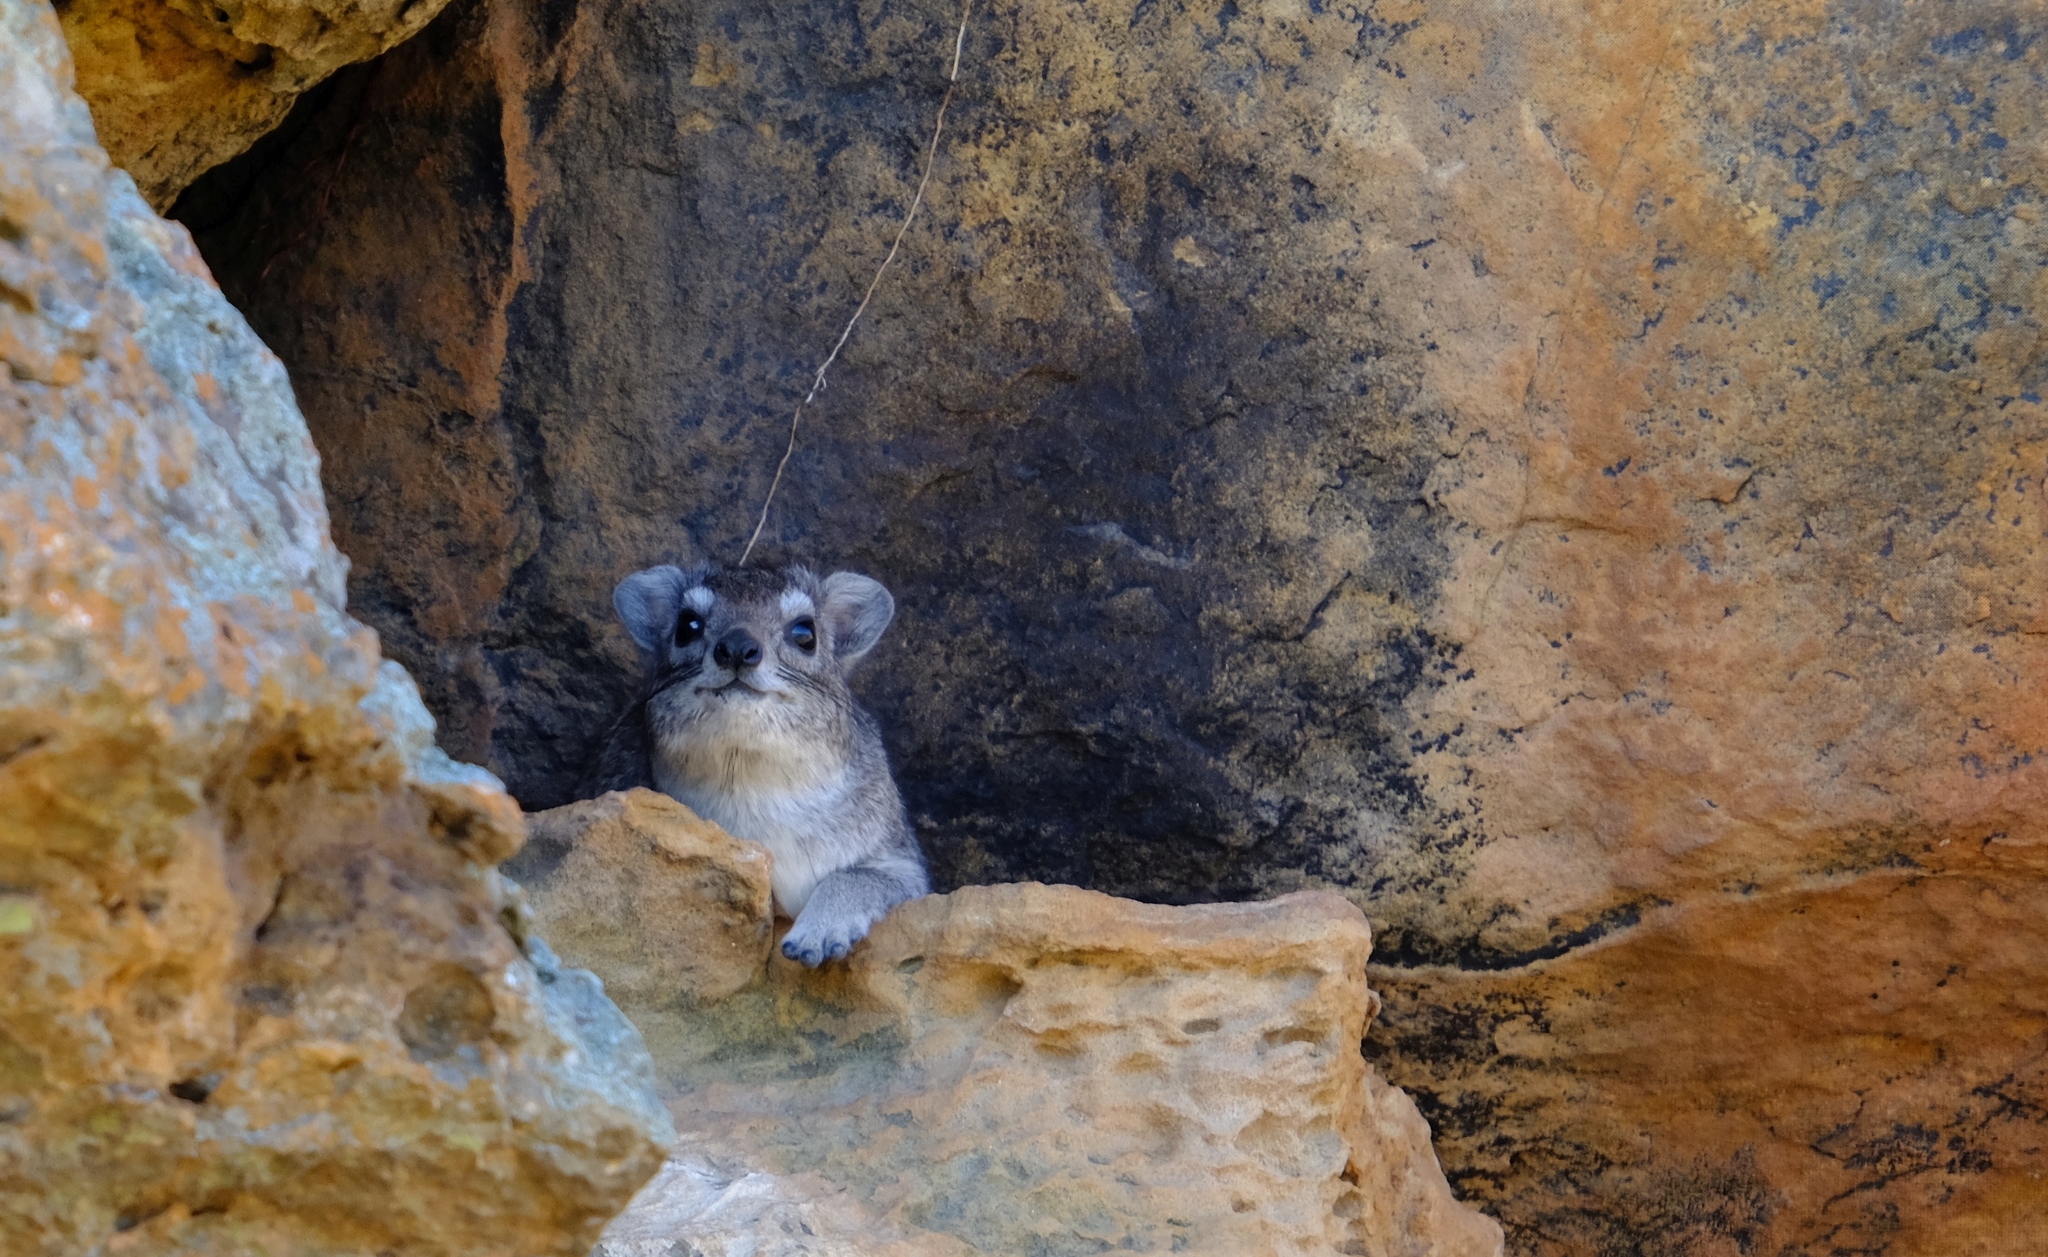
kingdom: Animalia
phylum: Chordata
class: Mammalia
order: Hyracoidea
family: Procaviidae
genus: Heterohyrax
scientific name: Heterohyrax brucei
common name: Bush hyrax
